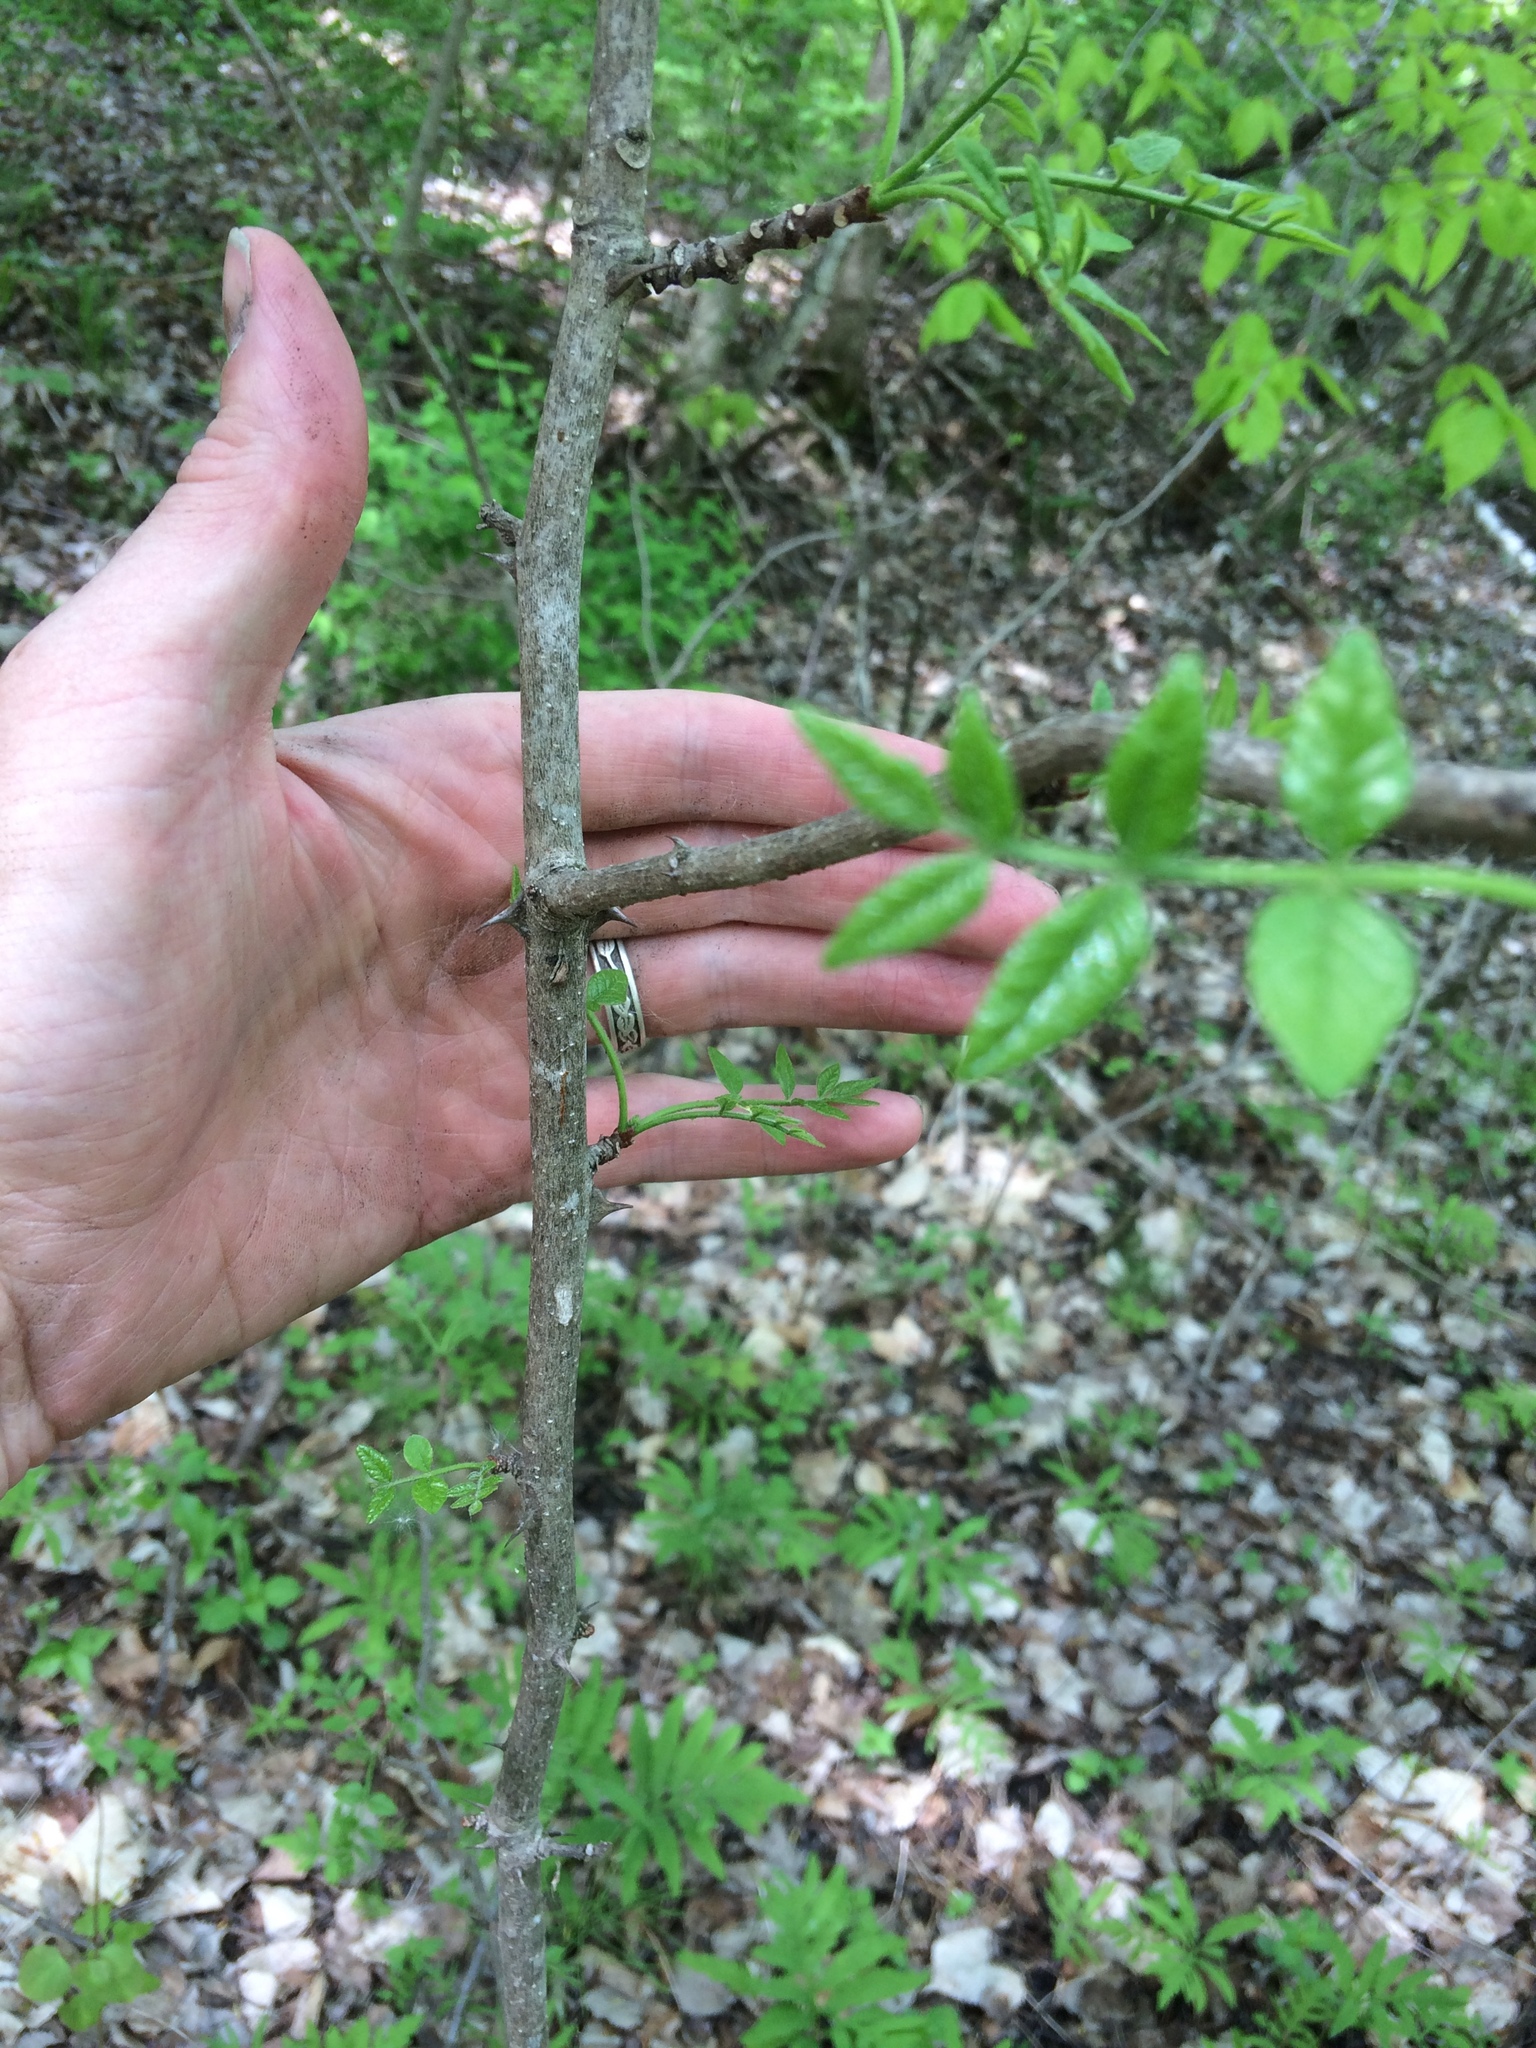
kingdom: Plantae
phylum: Tracheophyta
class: Magnoliopsida
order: Sapindales
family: Rutaceae
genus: Zanthoxylum
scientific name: Zanthoxylum americanum
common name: Northern prickly-ash
